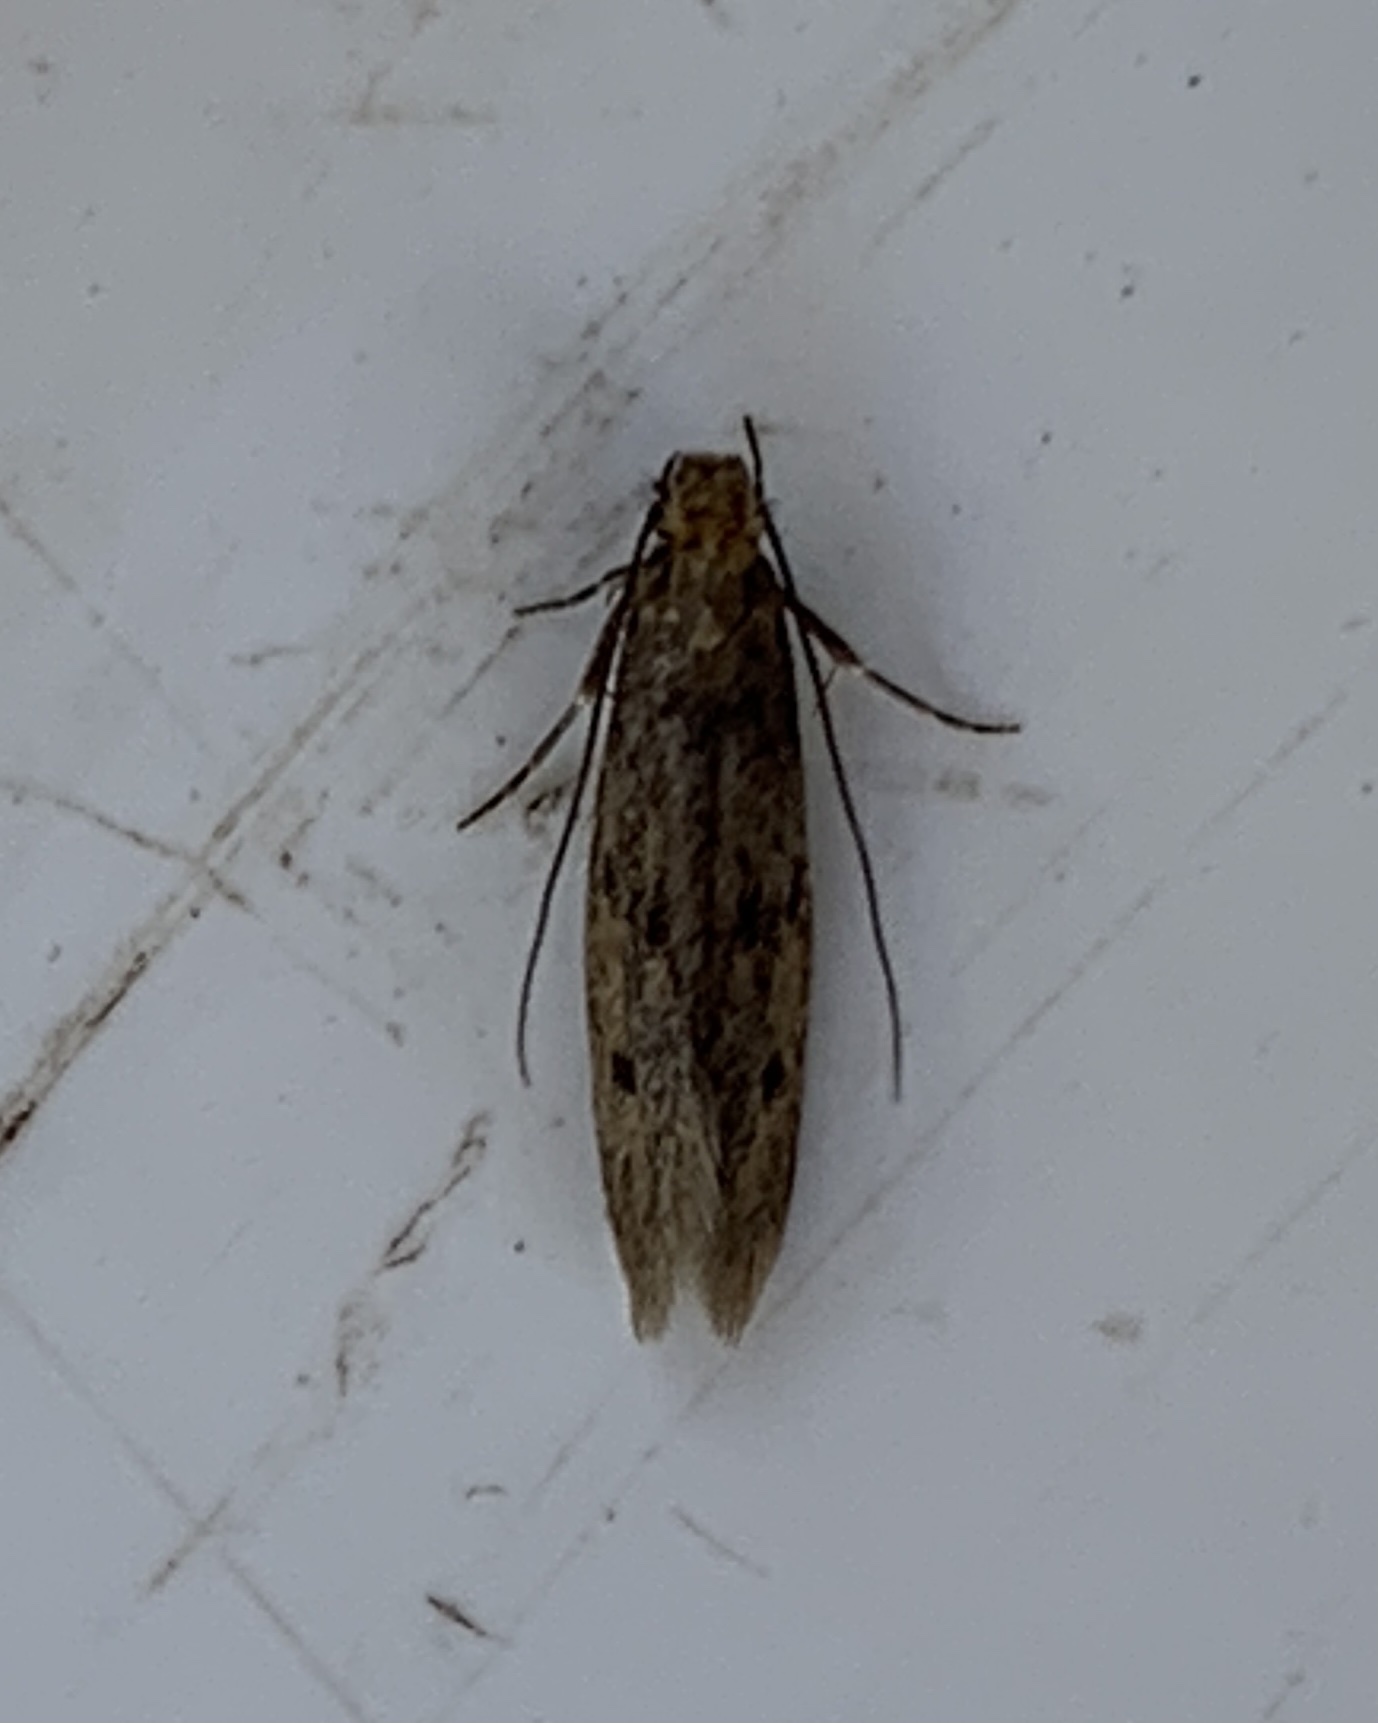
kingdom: Animalia
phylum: Arthropoda
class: Insecta
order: Lepidoptera
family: Tineidae
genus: Tinea
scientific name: Tinea pellionella
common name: Case-making clothes moth
